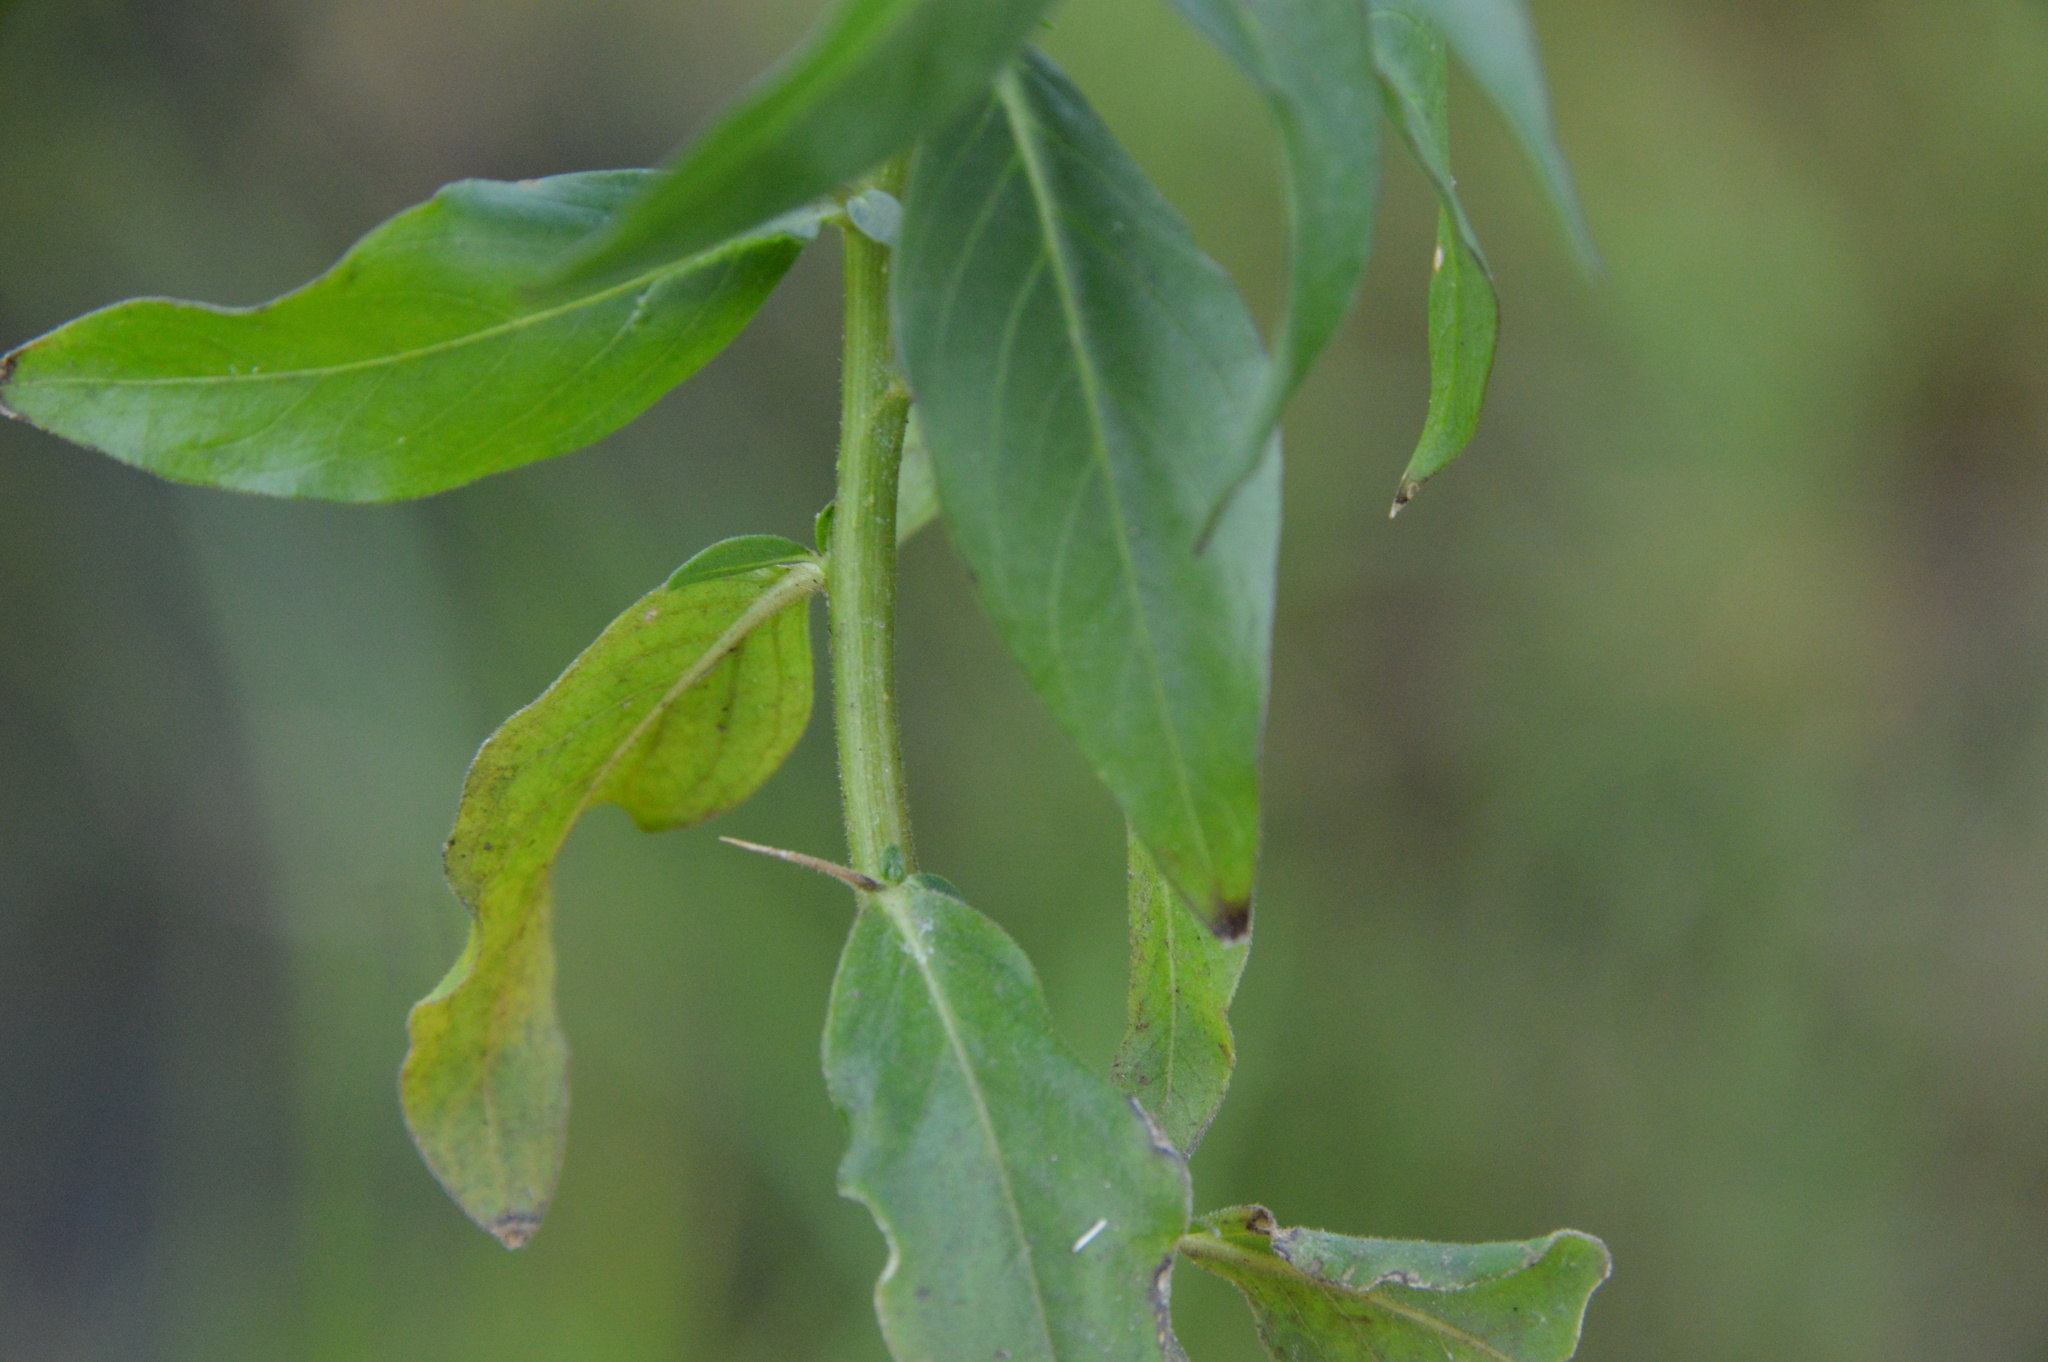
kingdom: Plantae
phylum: Tracheophyta
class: Magnoliopsida
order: Solanales
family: Hydroleaceae
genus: Hydrolea
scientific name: Hydrolea ovata
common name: Ovate false fiddleleaf
